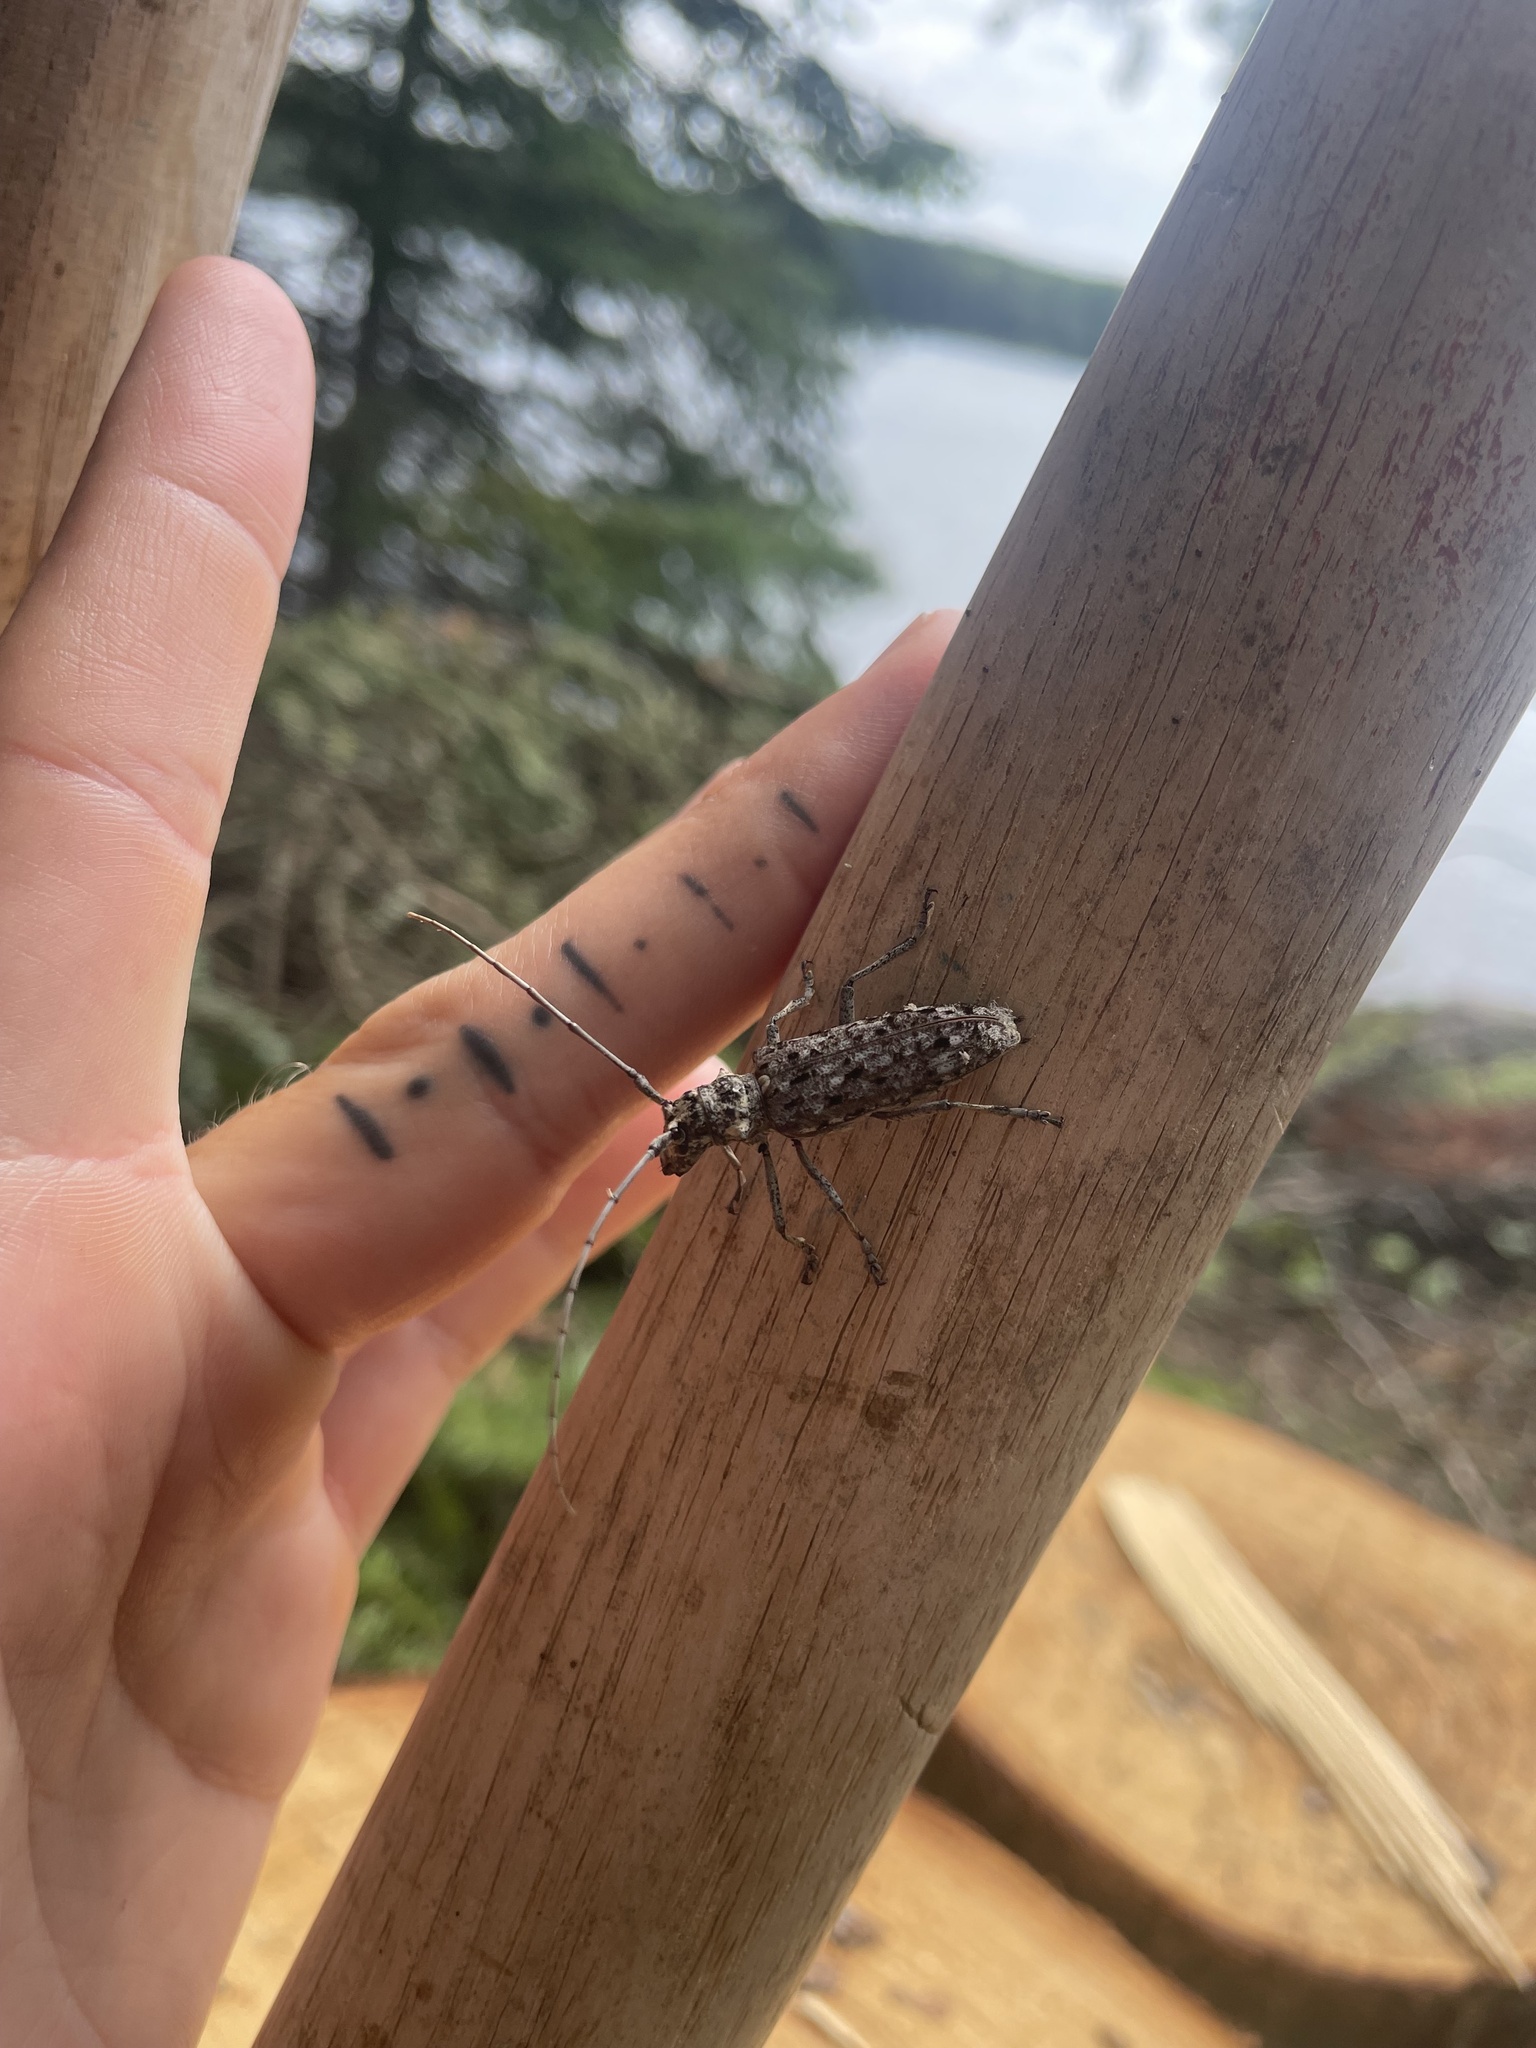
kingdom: Animalia
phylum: Arthropoda
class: Insecta
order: Coleoptera
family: Cerambycidae
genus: Monochamus
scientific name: Monochamus notatus
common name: Northeastern pine sawyer beetle
